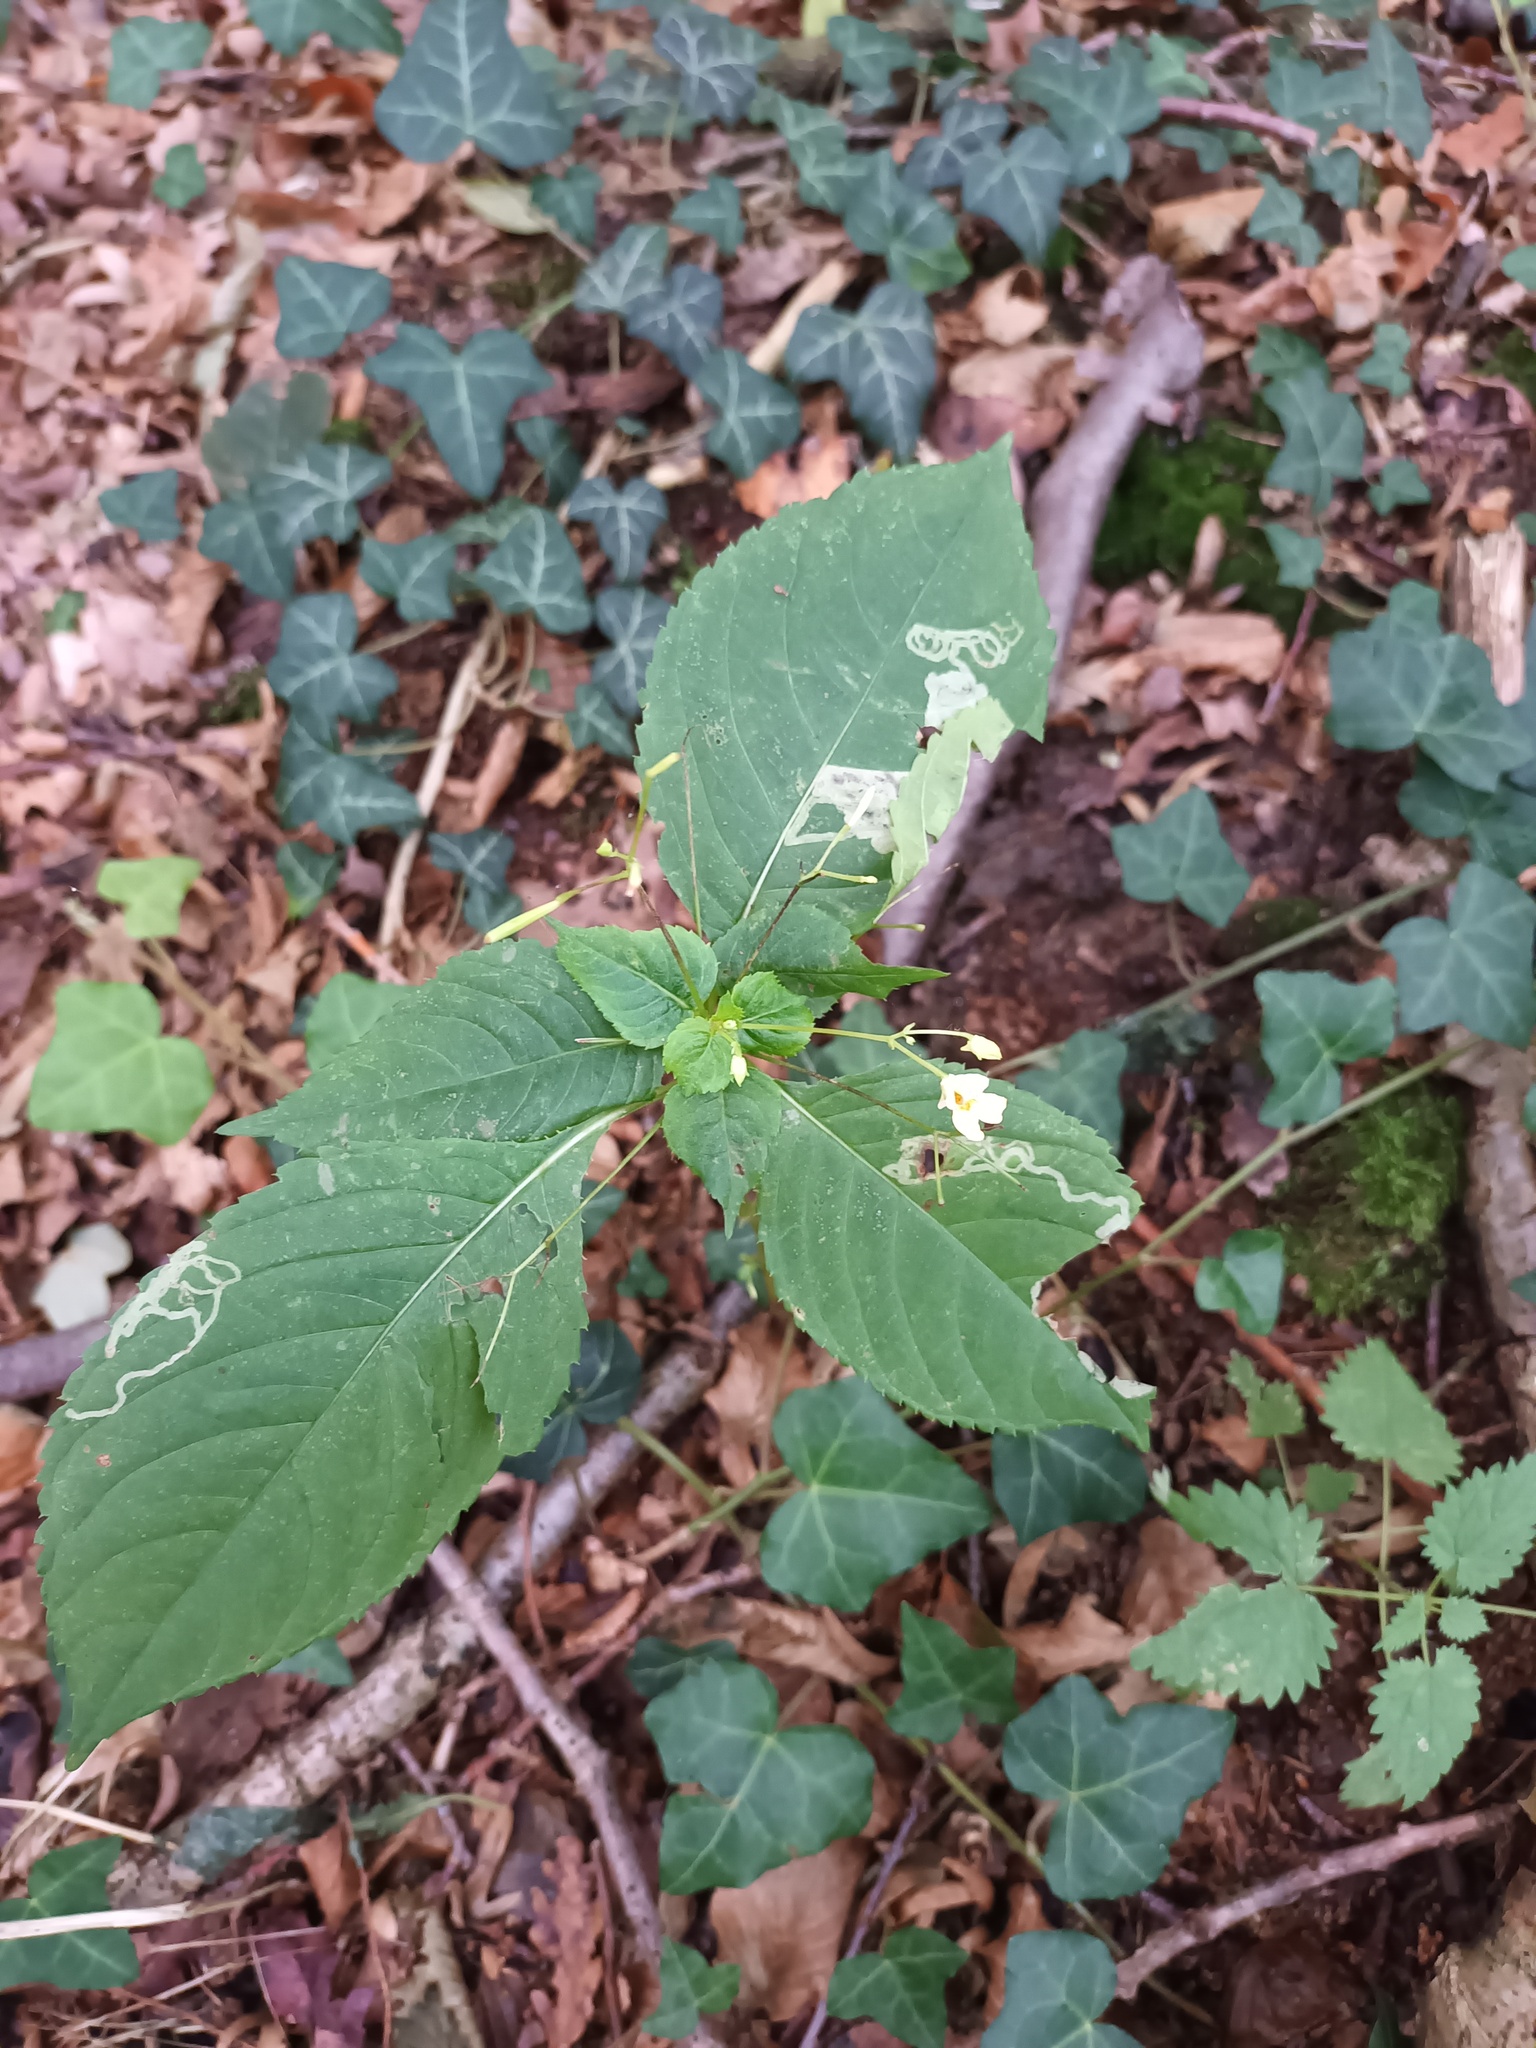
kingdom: Plantae
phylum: Tracheophyta
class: Magnoliopsida
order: Ericales
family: Balsaminaceae
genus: Impatiens
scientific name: Impatiens parviflora
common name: Small balsam
